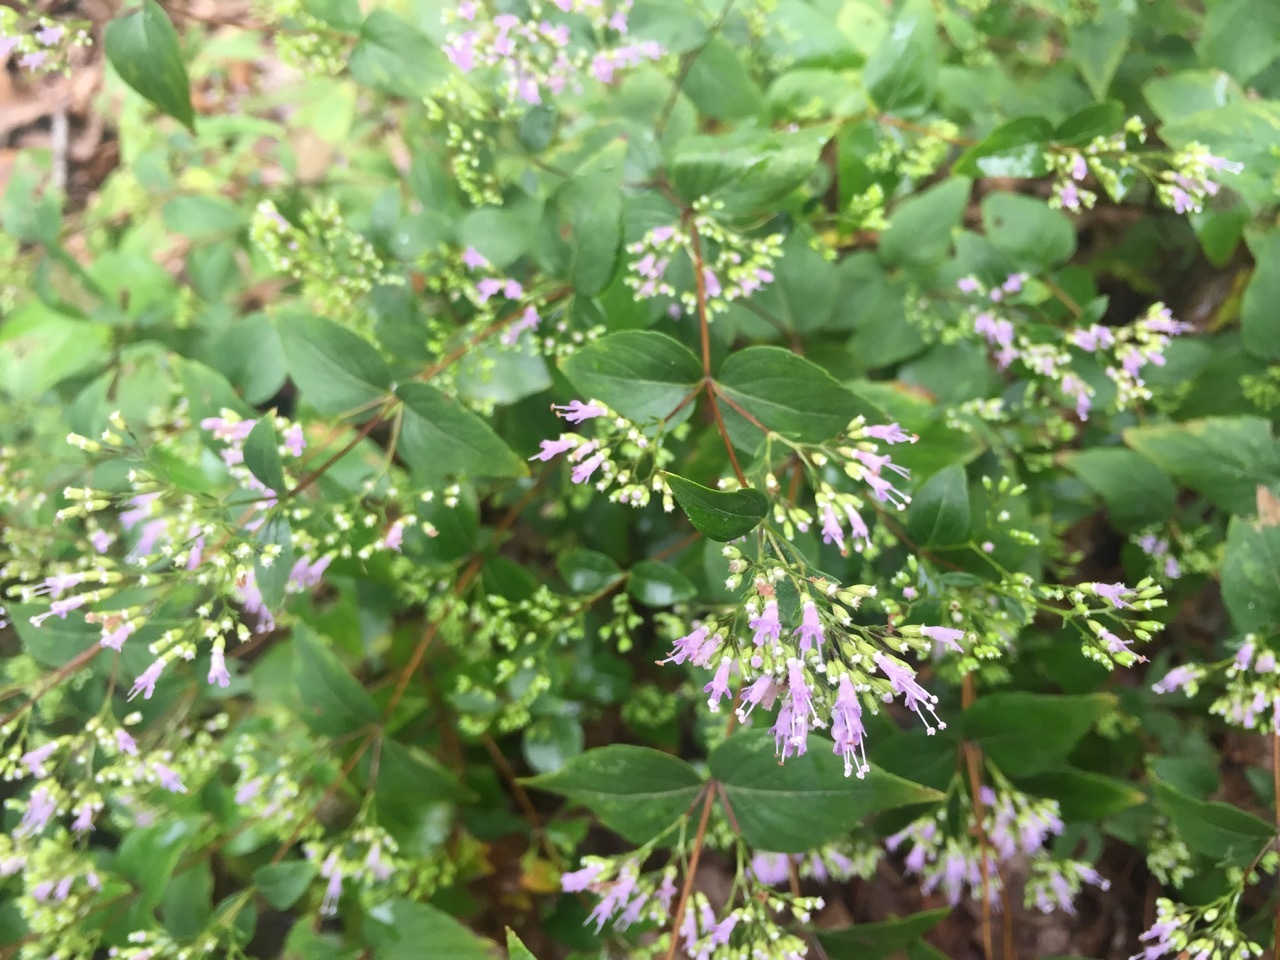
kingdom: Plantae
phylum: Tracheophyta
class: Magnoliopsida
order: Lamiales
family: Lamiaceae
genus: Cunila
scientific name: Cunila origanoides
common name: American dittany
